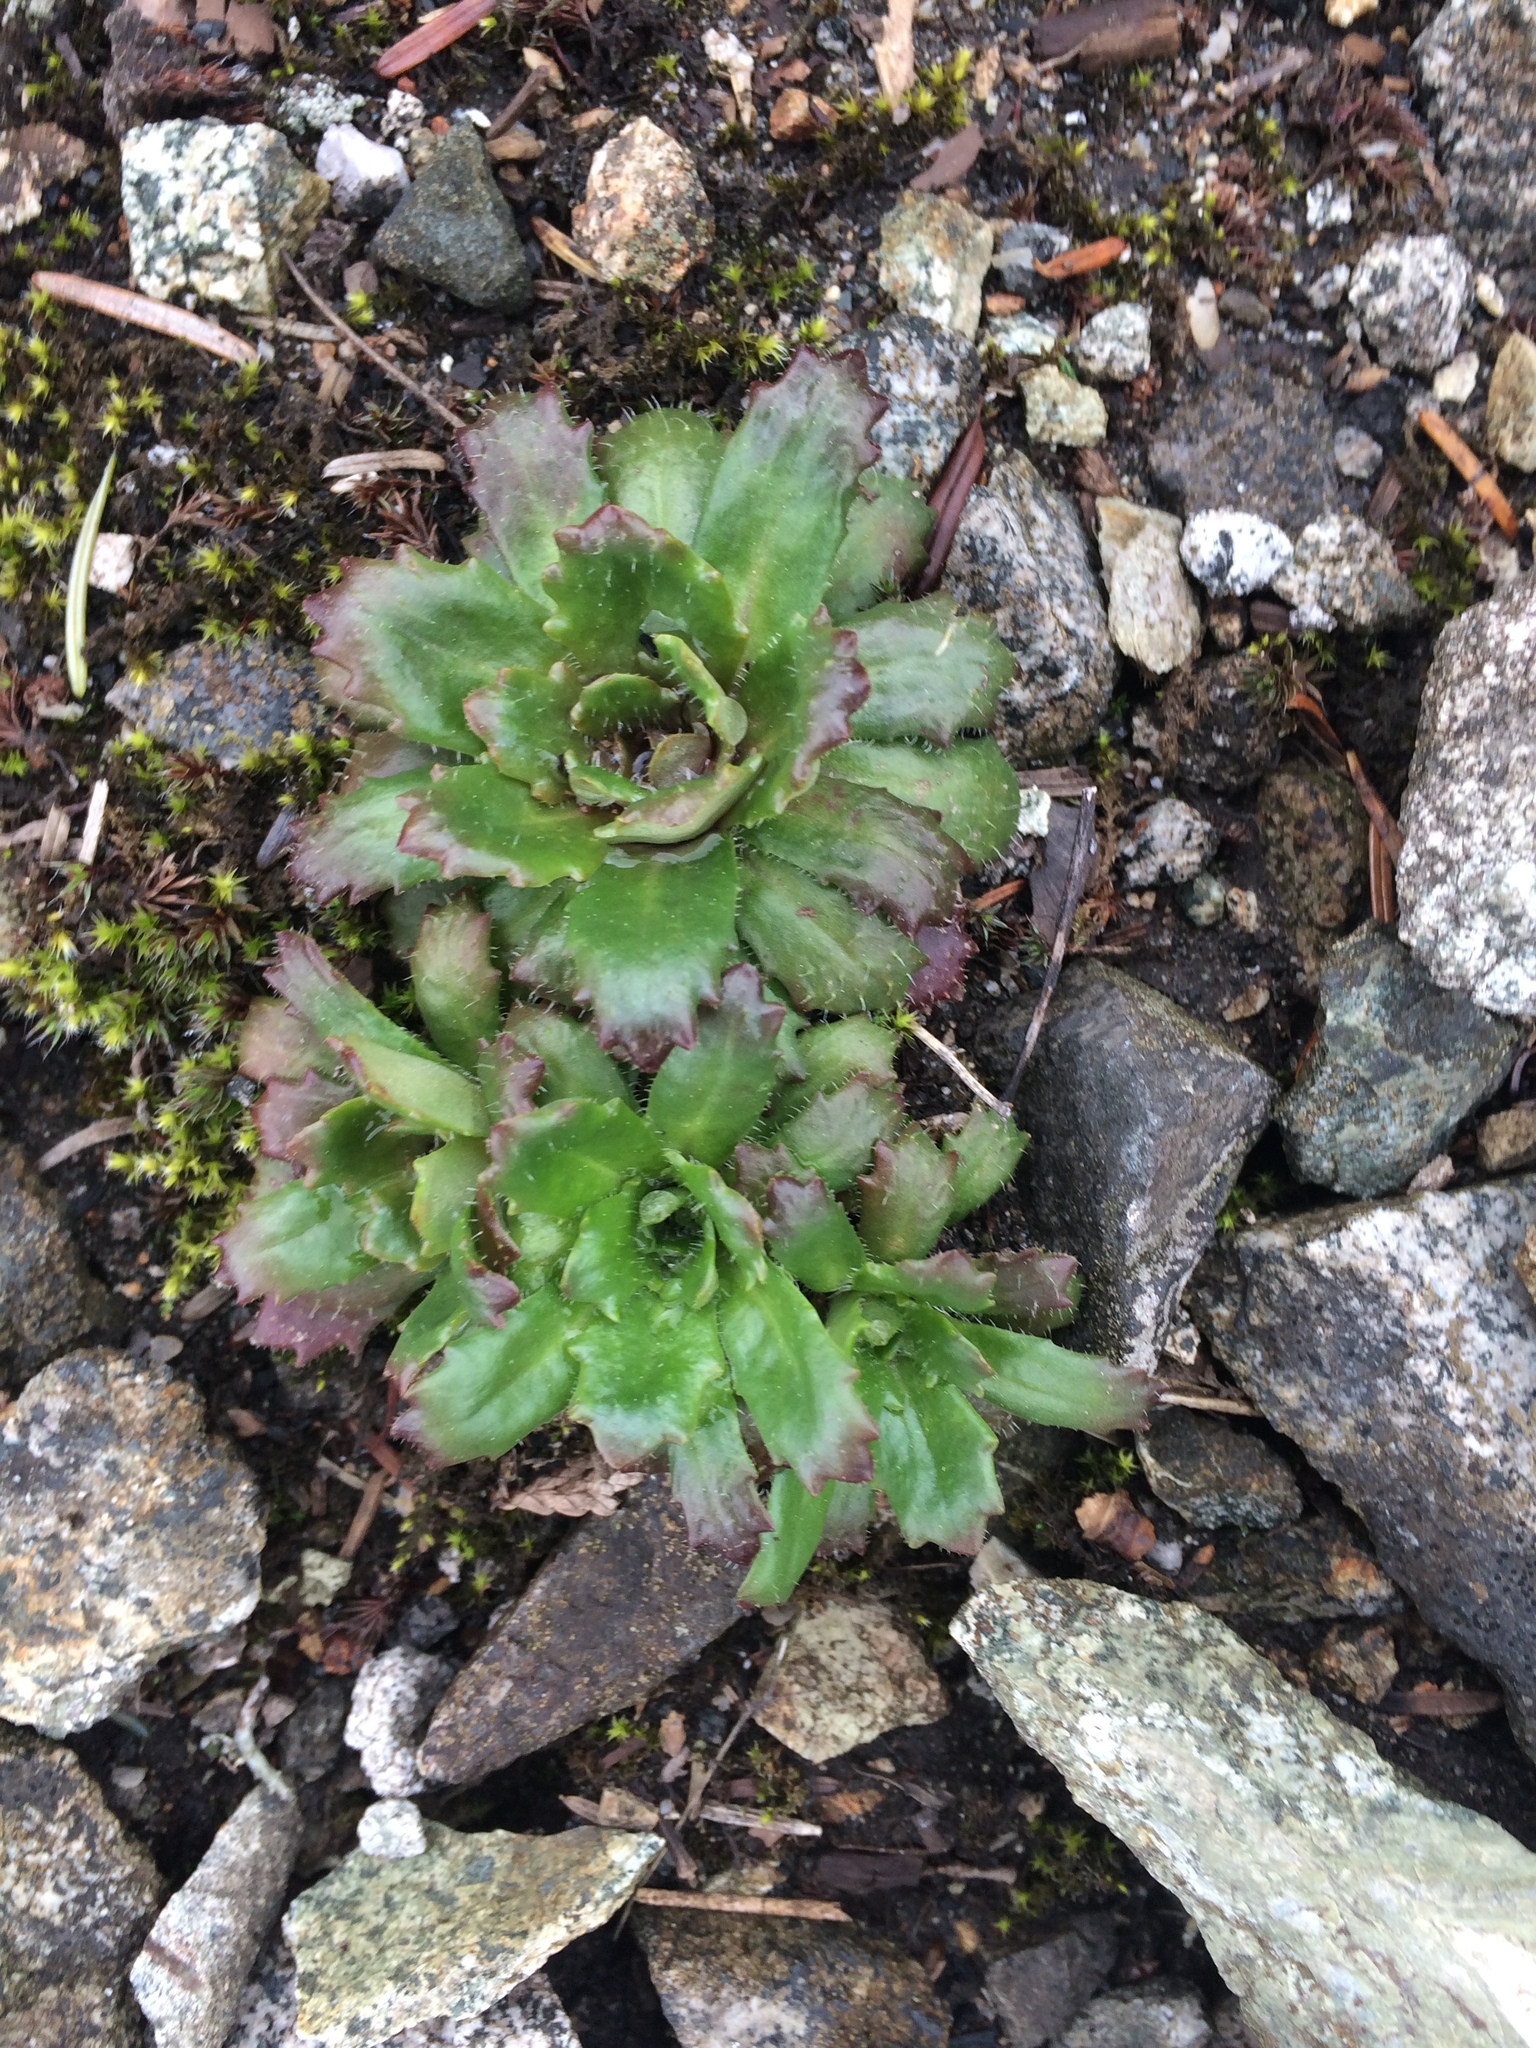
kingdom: Plantae
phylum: Tracheophyta
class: Magnoliopsida
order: Saxifragales
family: Saxifragaceae
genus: Micranthes
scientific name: Micranthes ferruginea
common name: Rusty saxifrage
